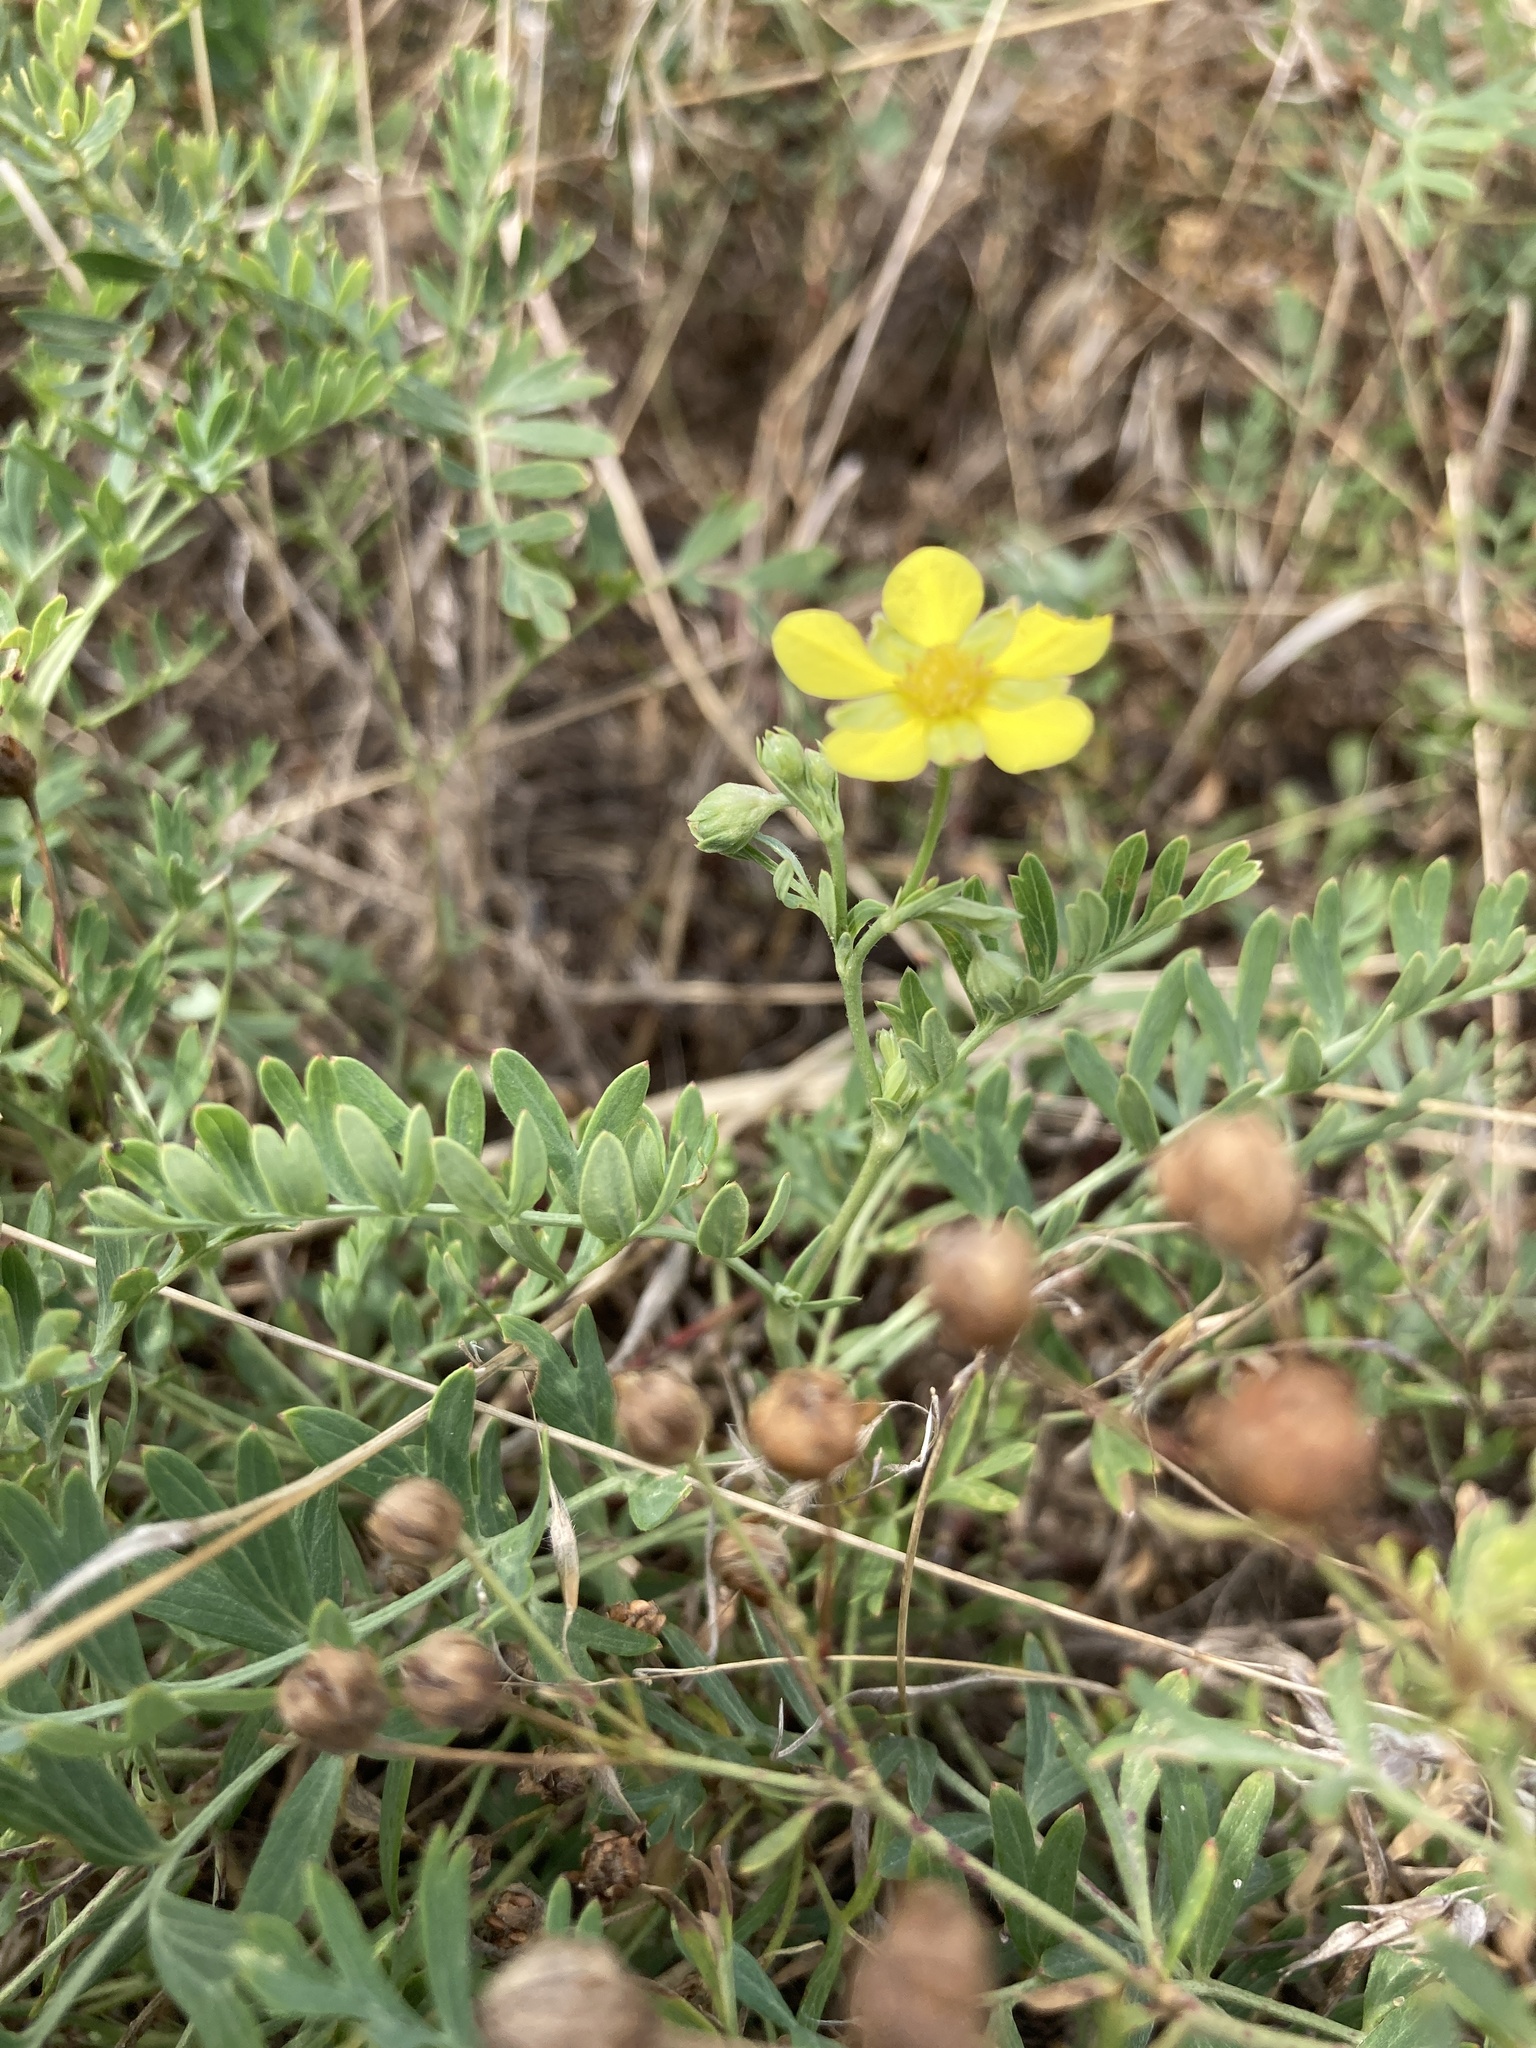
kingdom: Plantae
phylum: Tracheophyta
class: Magnoliopsida
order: Rosales
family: Rosaceae
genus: Sibbaldianthe
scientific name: Sibbaldianthe bifurca
